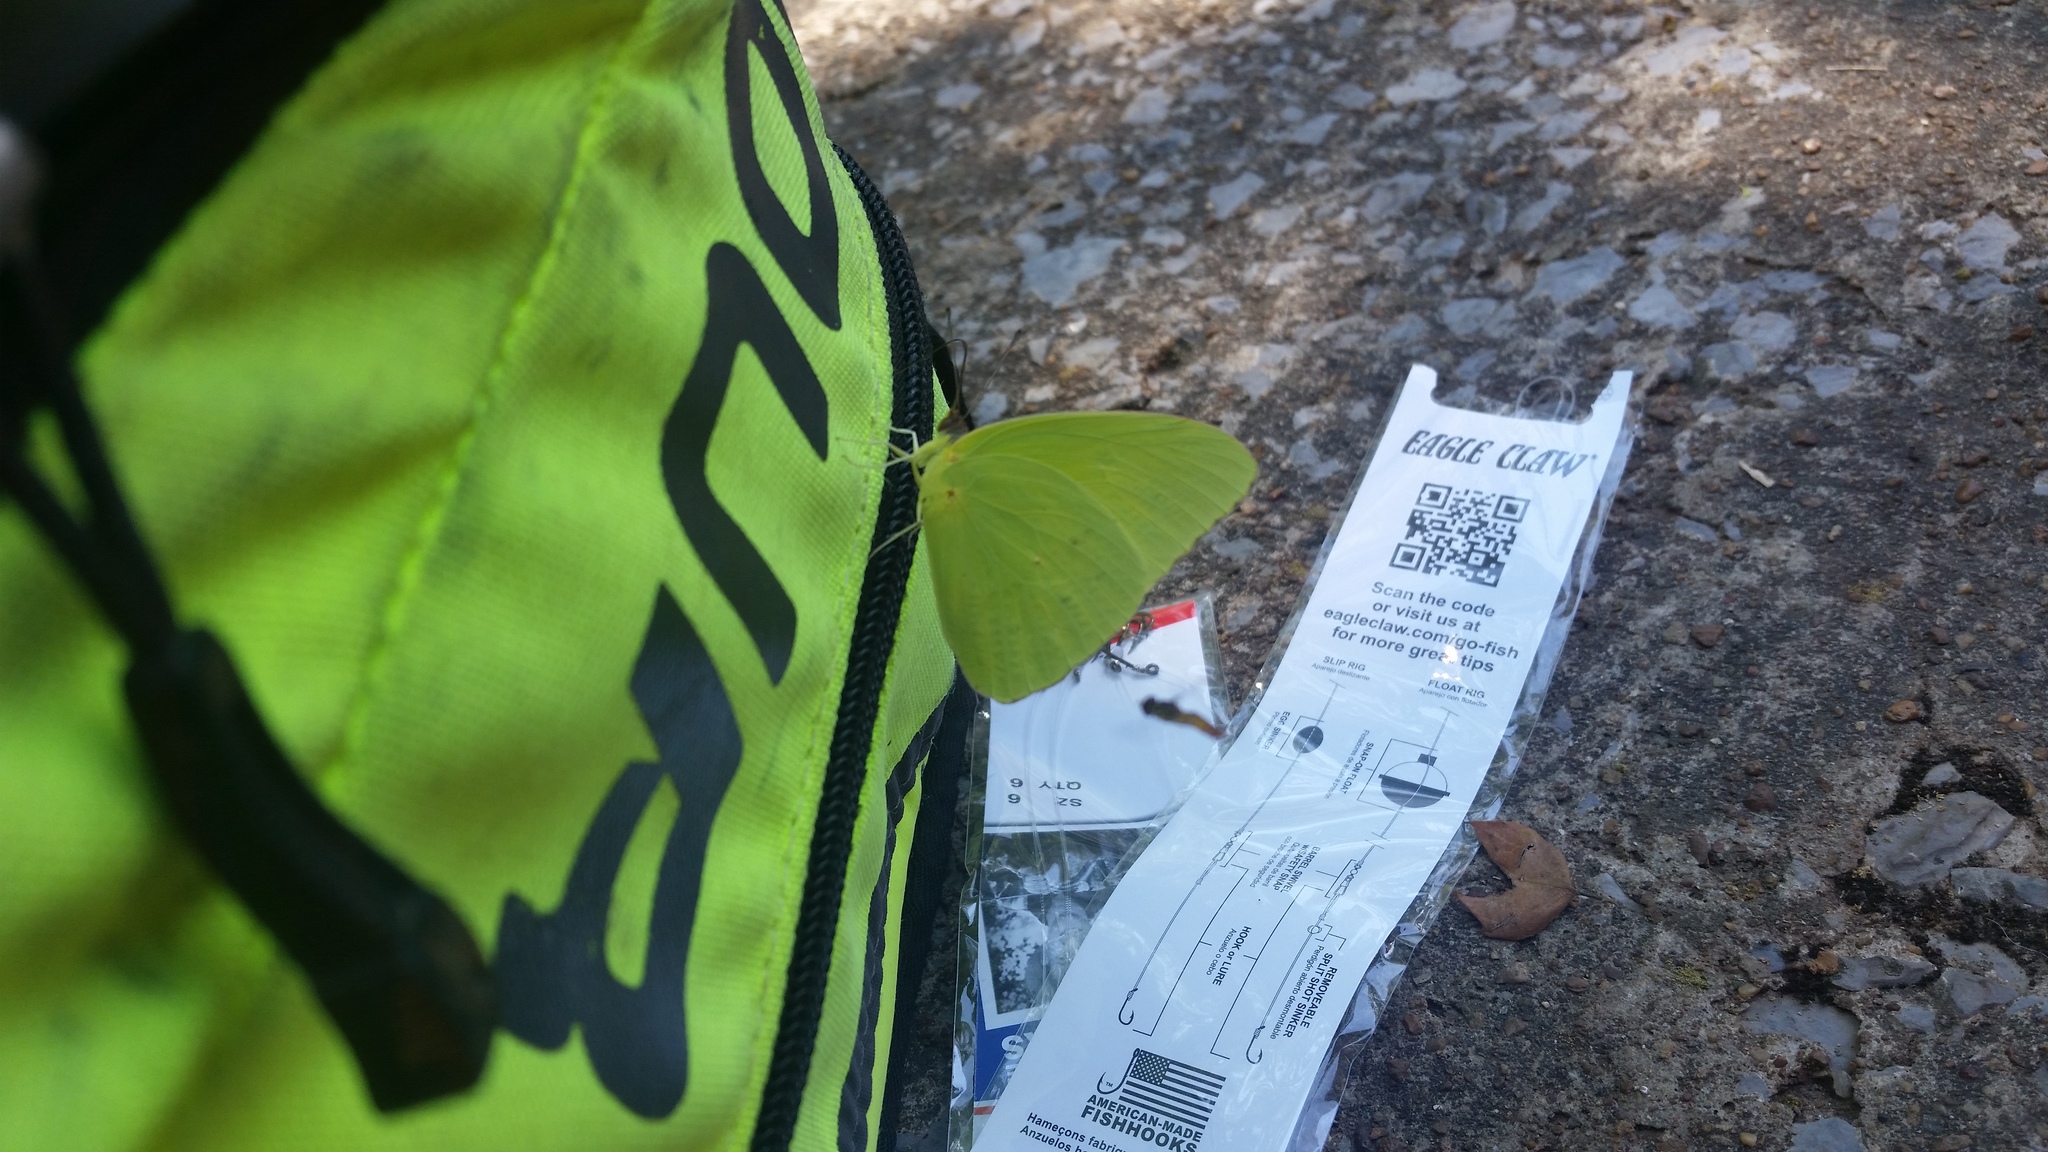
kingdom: Animalia
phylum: Arthropoda
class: Insecta
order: Lepidoptera
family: Pieridae
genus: Phoebis
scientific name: Phoebis sennae
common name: Cloudless sulphur
